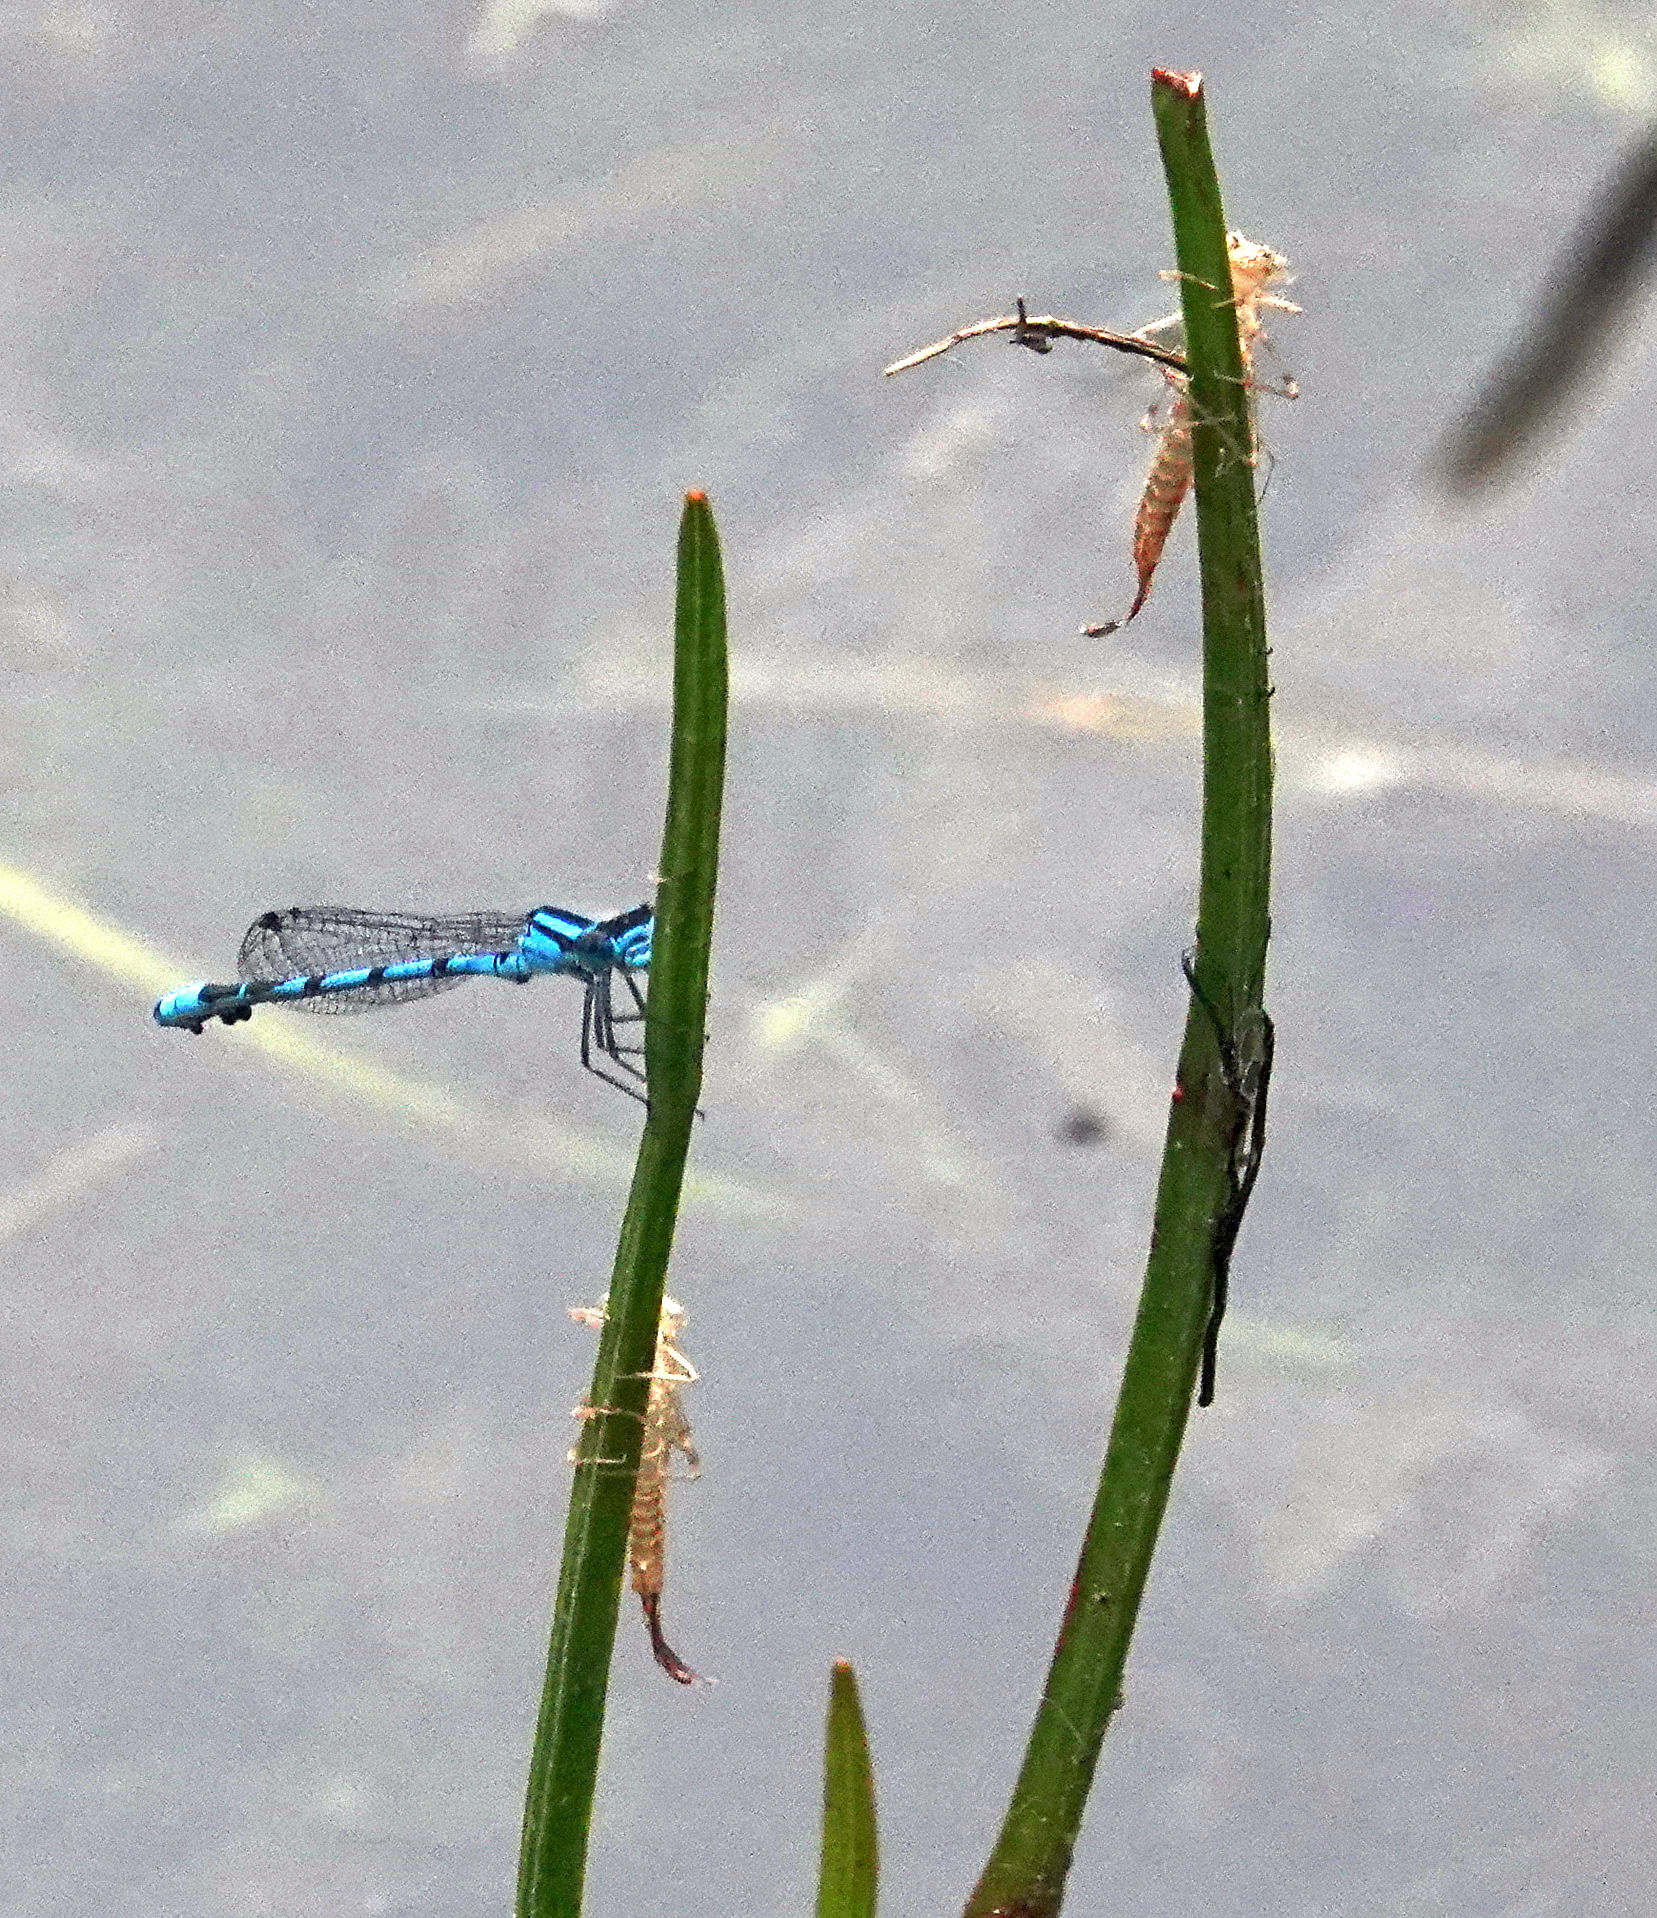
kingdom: Animalia
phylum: Arthropoda
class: Insecta
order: Odonata
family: Coenagrionidae
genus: Enallagma
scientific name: Enallagma
